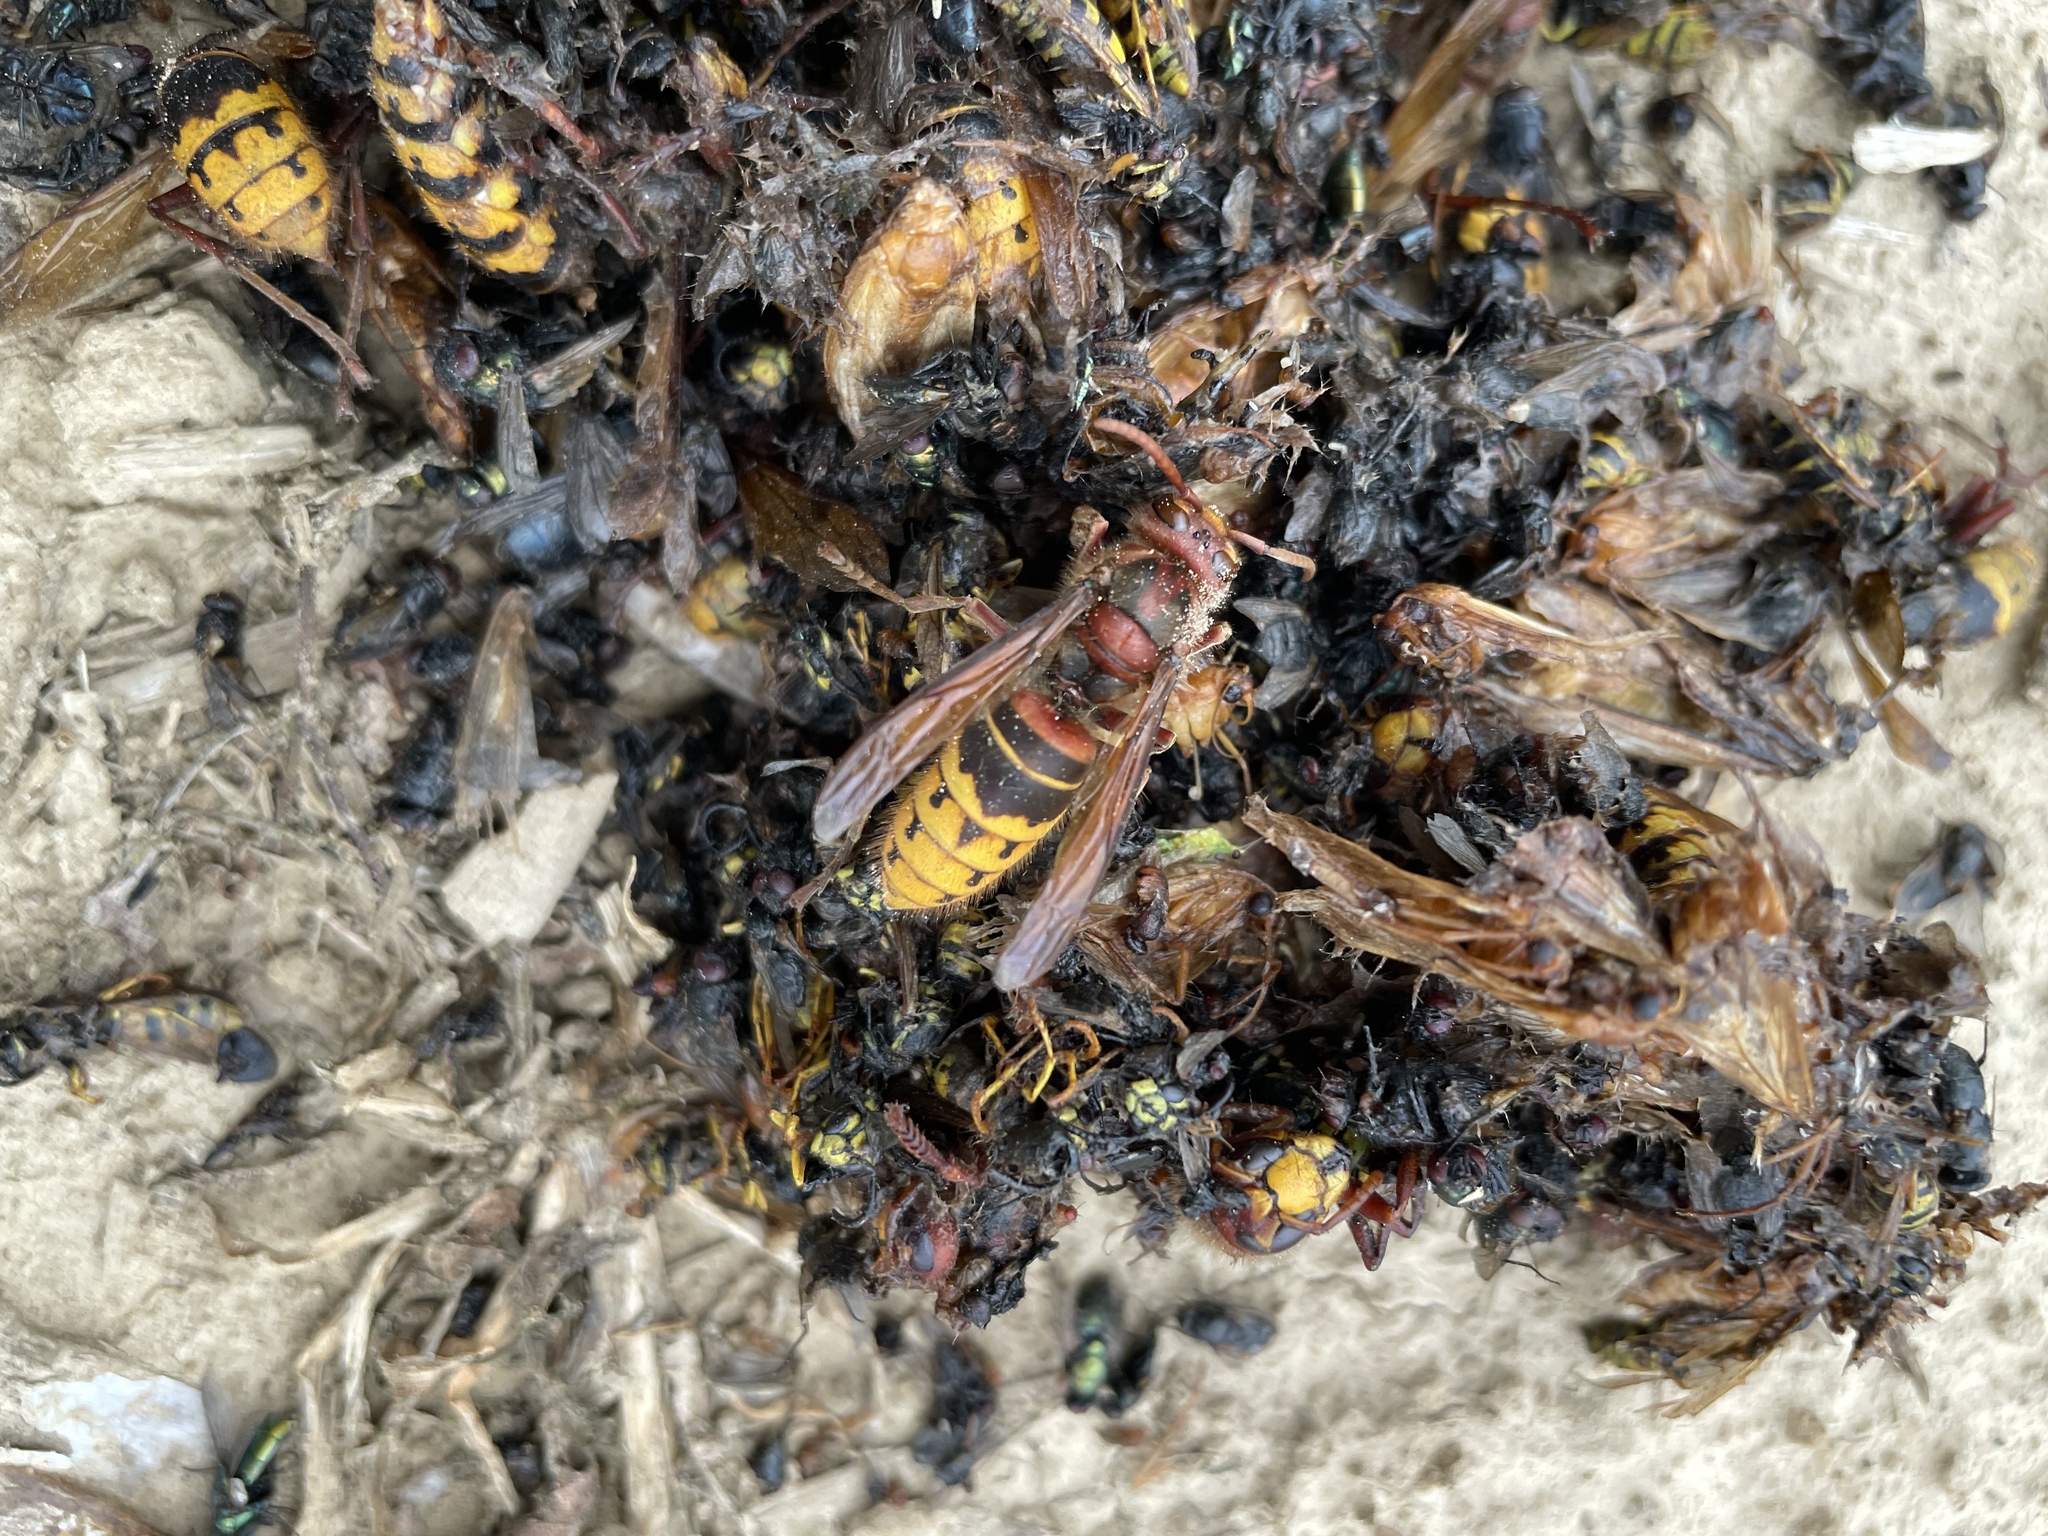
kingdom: Animalia
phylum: Arthropoda
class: Insecta
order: Hymenoptera
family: Vespidae
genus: Vespa
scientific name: Vespa crabro
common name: Hornet
